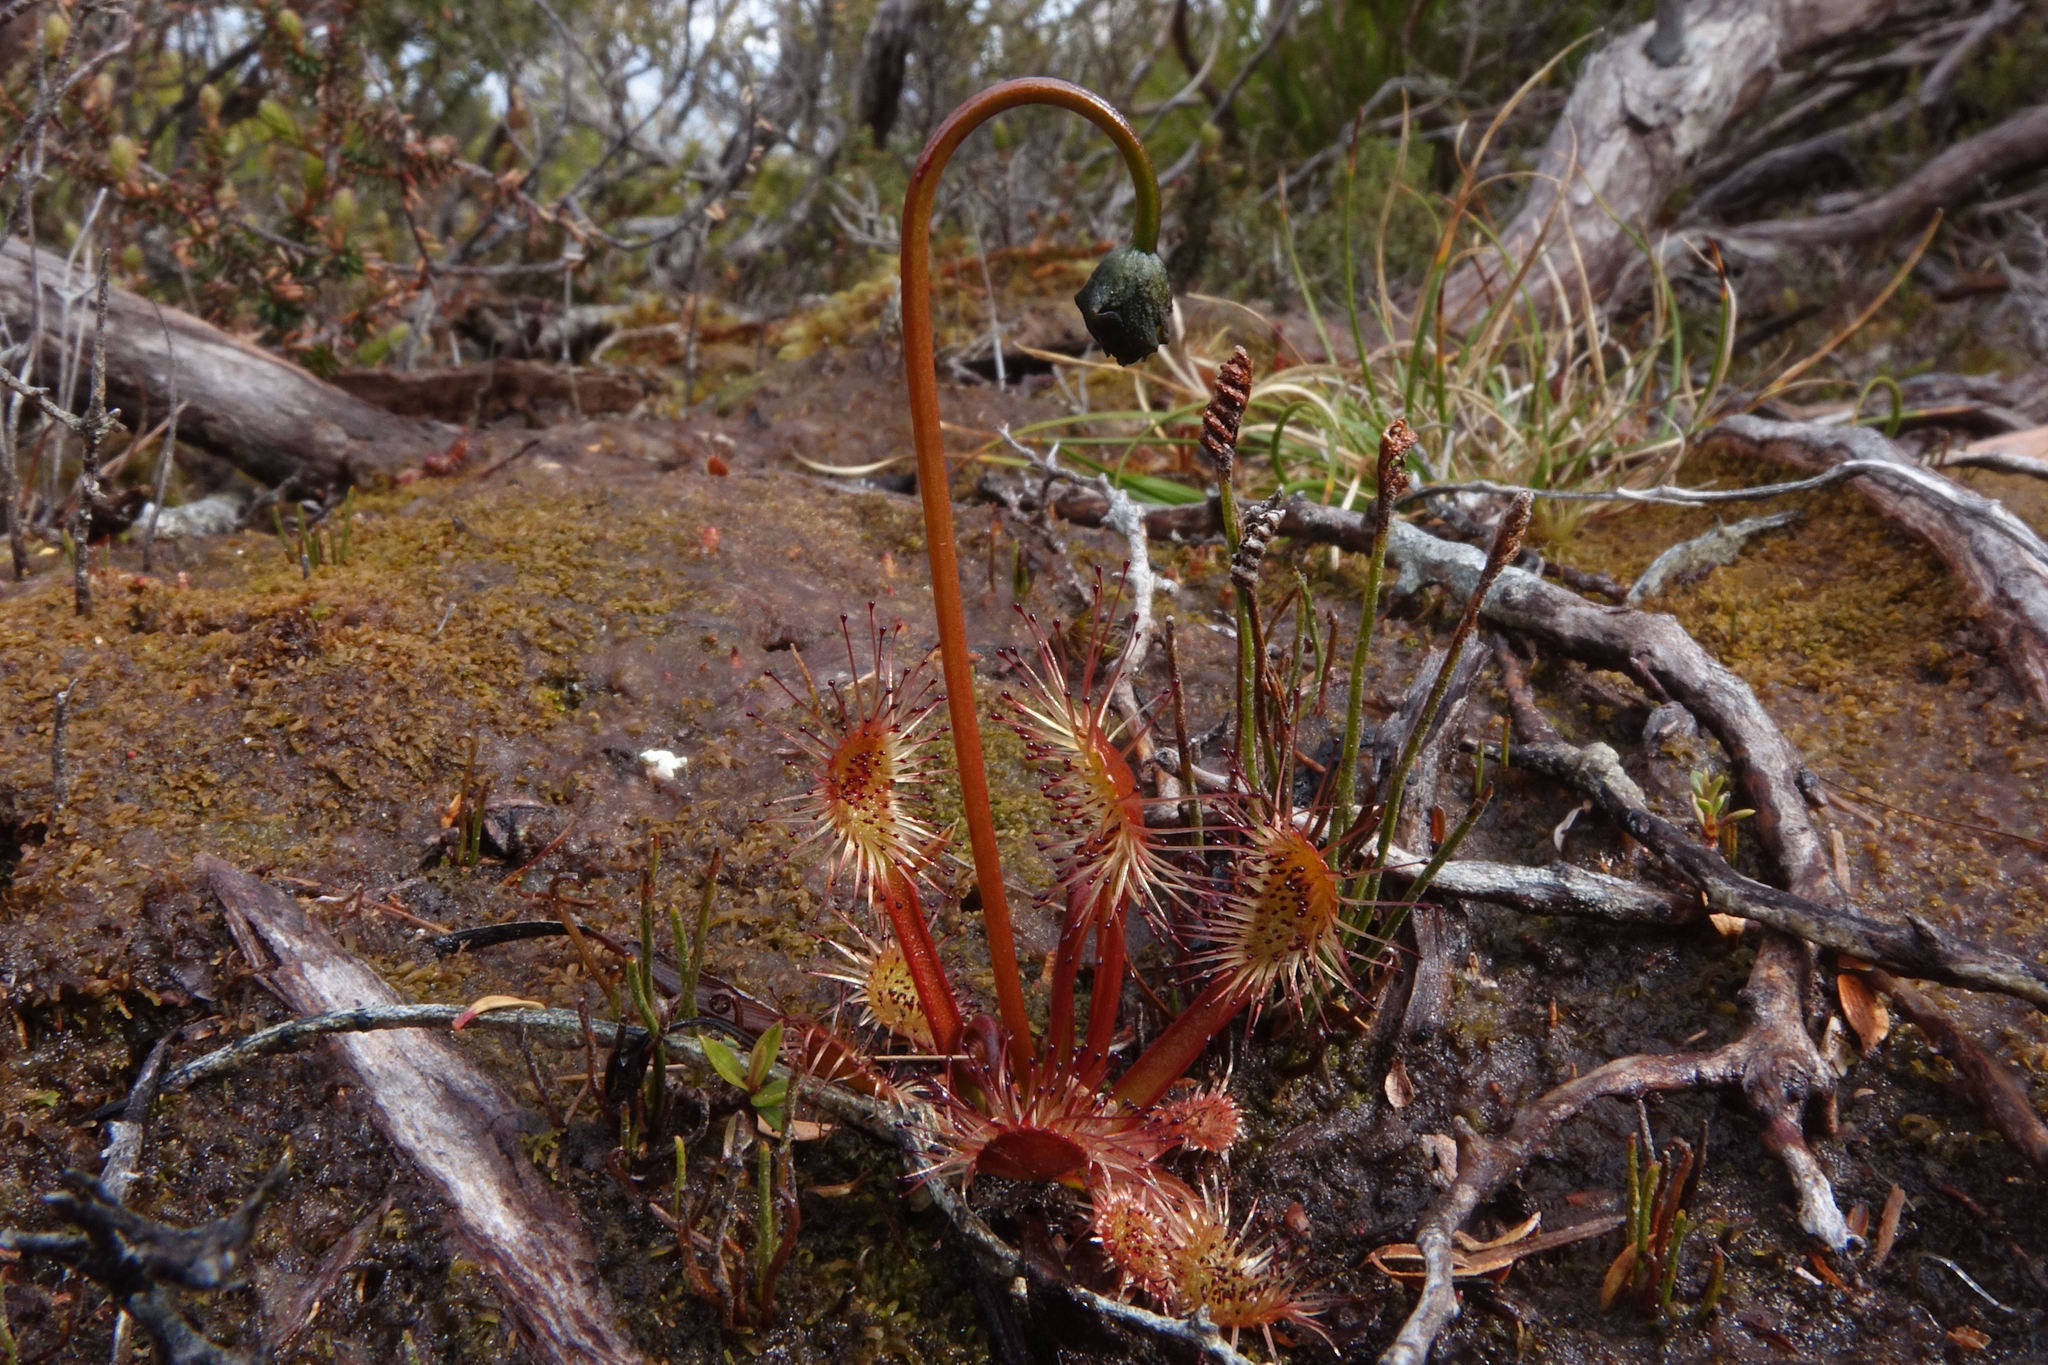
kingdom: Plantae
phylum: Tracheophyta
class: Magnoliopsida
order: Caryophyllales
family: Droseraceae
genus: Drosera
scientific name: Drosera stenopetala
